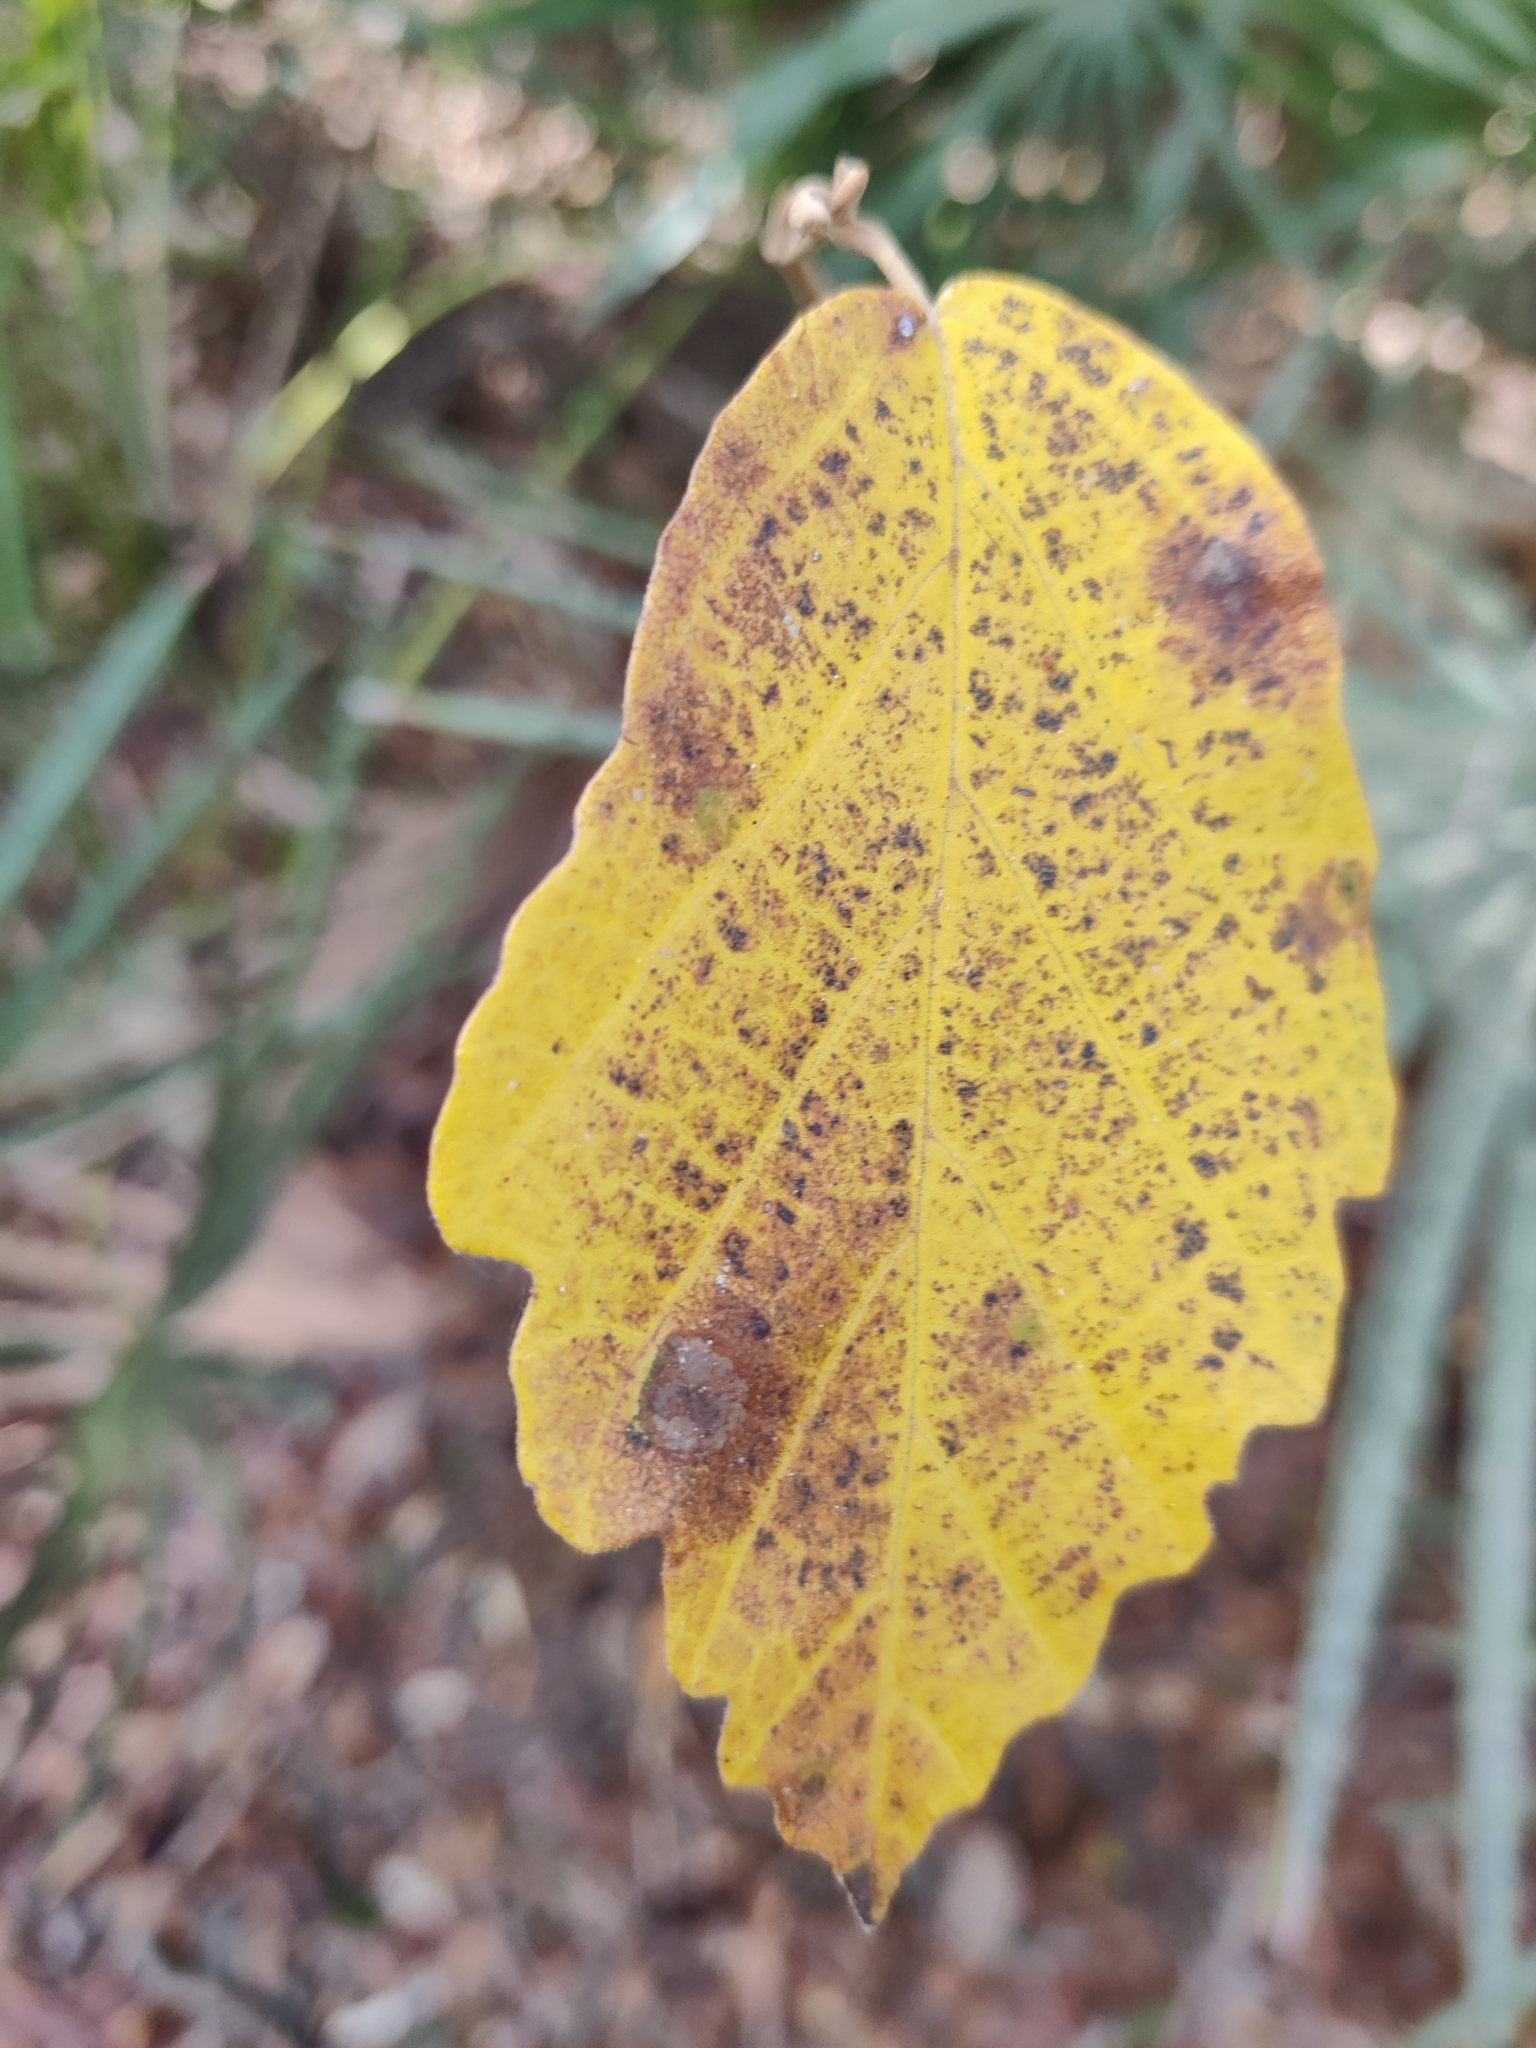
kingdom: Plantae
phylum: Tracheophyta
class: Magnoliopsida
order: Saxifragales
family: Hamamelidaceae
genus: Hamamelis
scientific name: Hamamelis virginiana
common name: Witch-hazel
